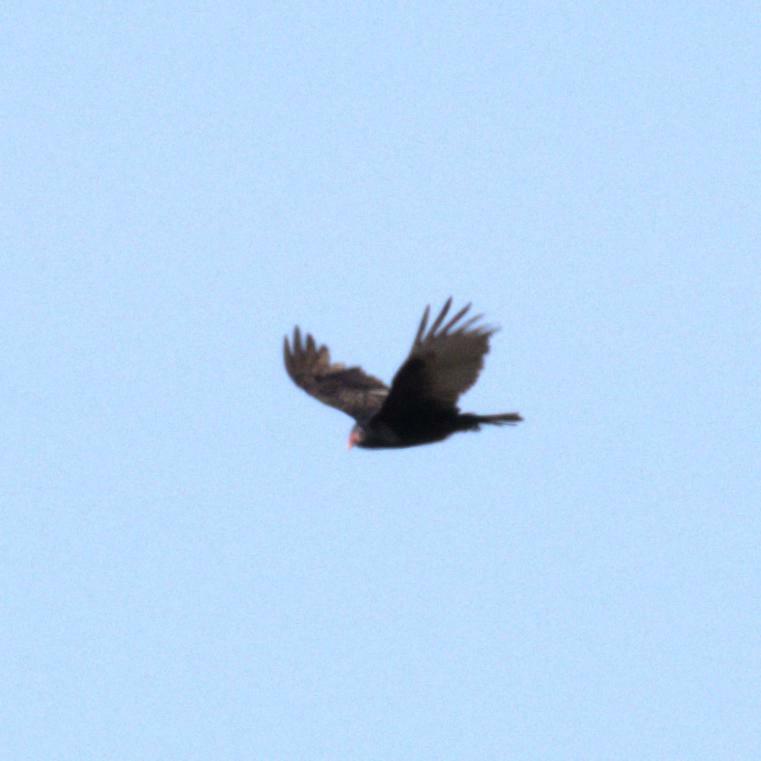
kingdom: Animalia
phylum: Chordata
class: Aves
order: Accipitriformes
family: Cathartidae
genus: Cathartes
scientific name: Cathartes aura
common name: Turkey vulture
